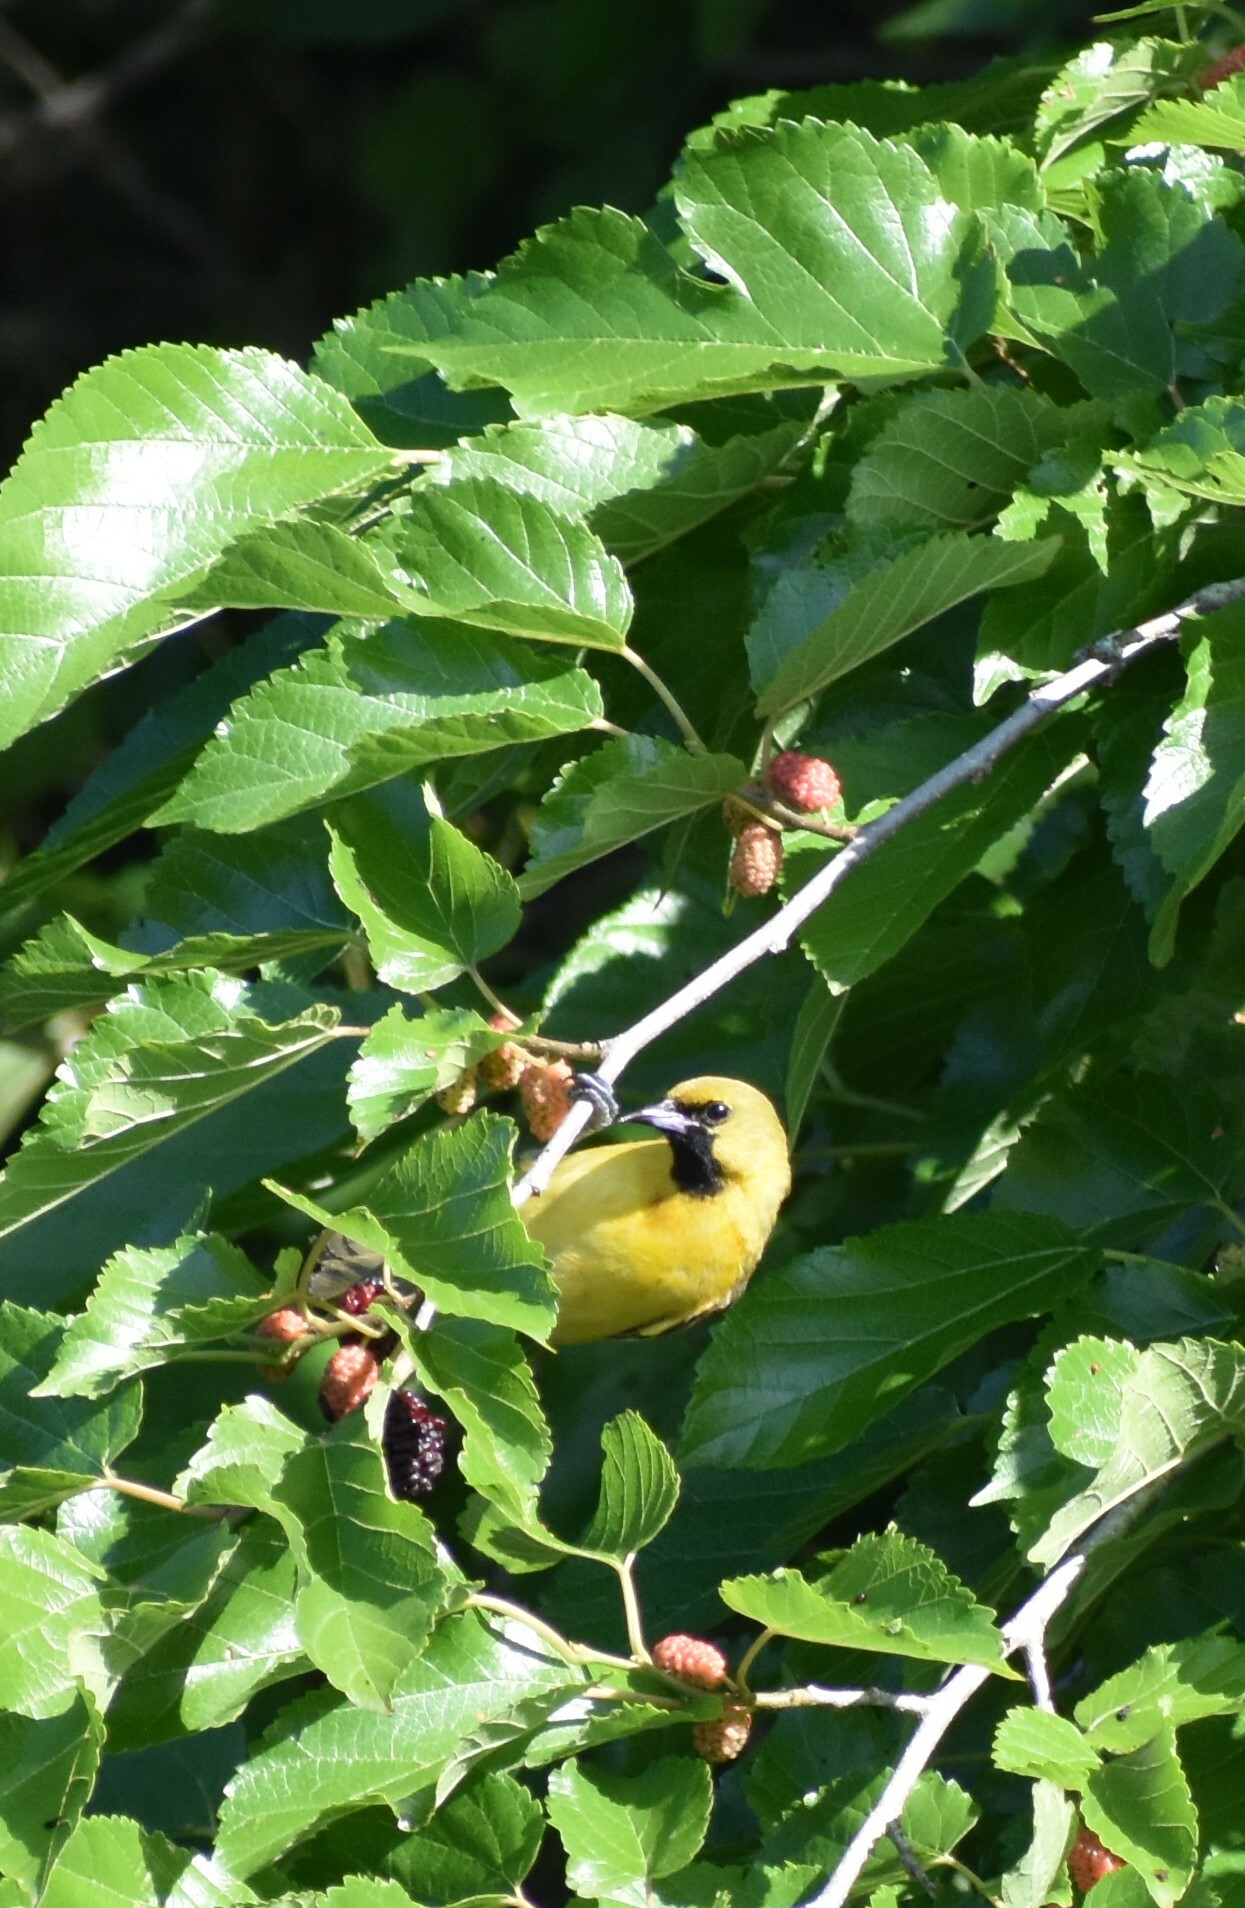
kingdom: Animalia
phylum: Chordata
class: Aves
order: Passeriformes
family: Icteridae
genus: Icterus
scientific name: Icterus spurius
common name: Orchard oriole
